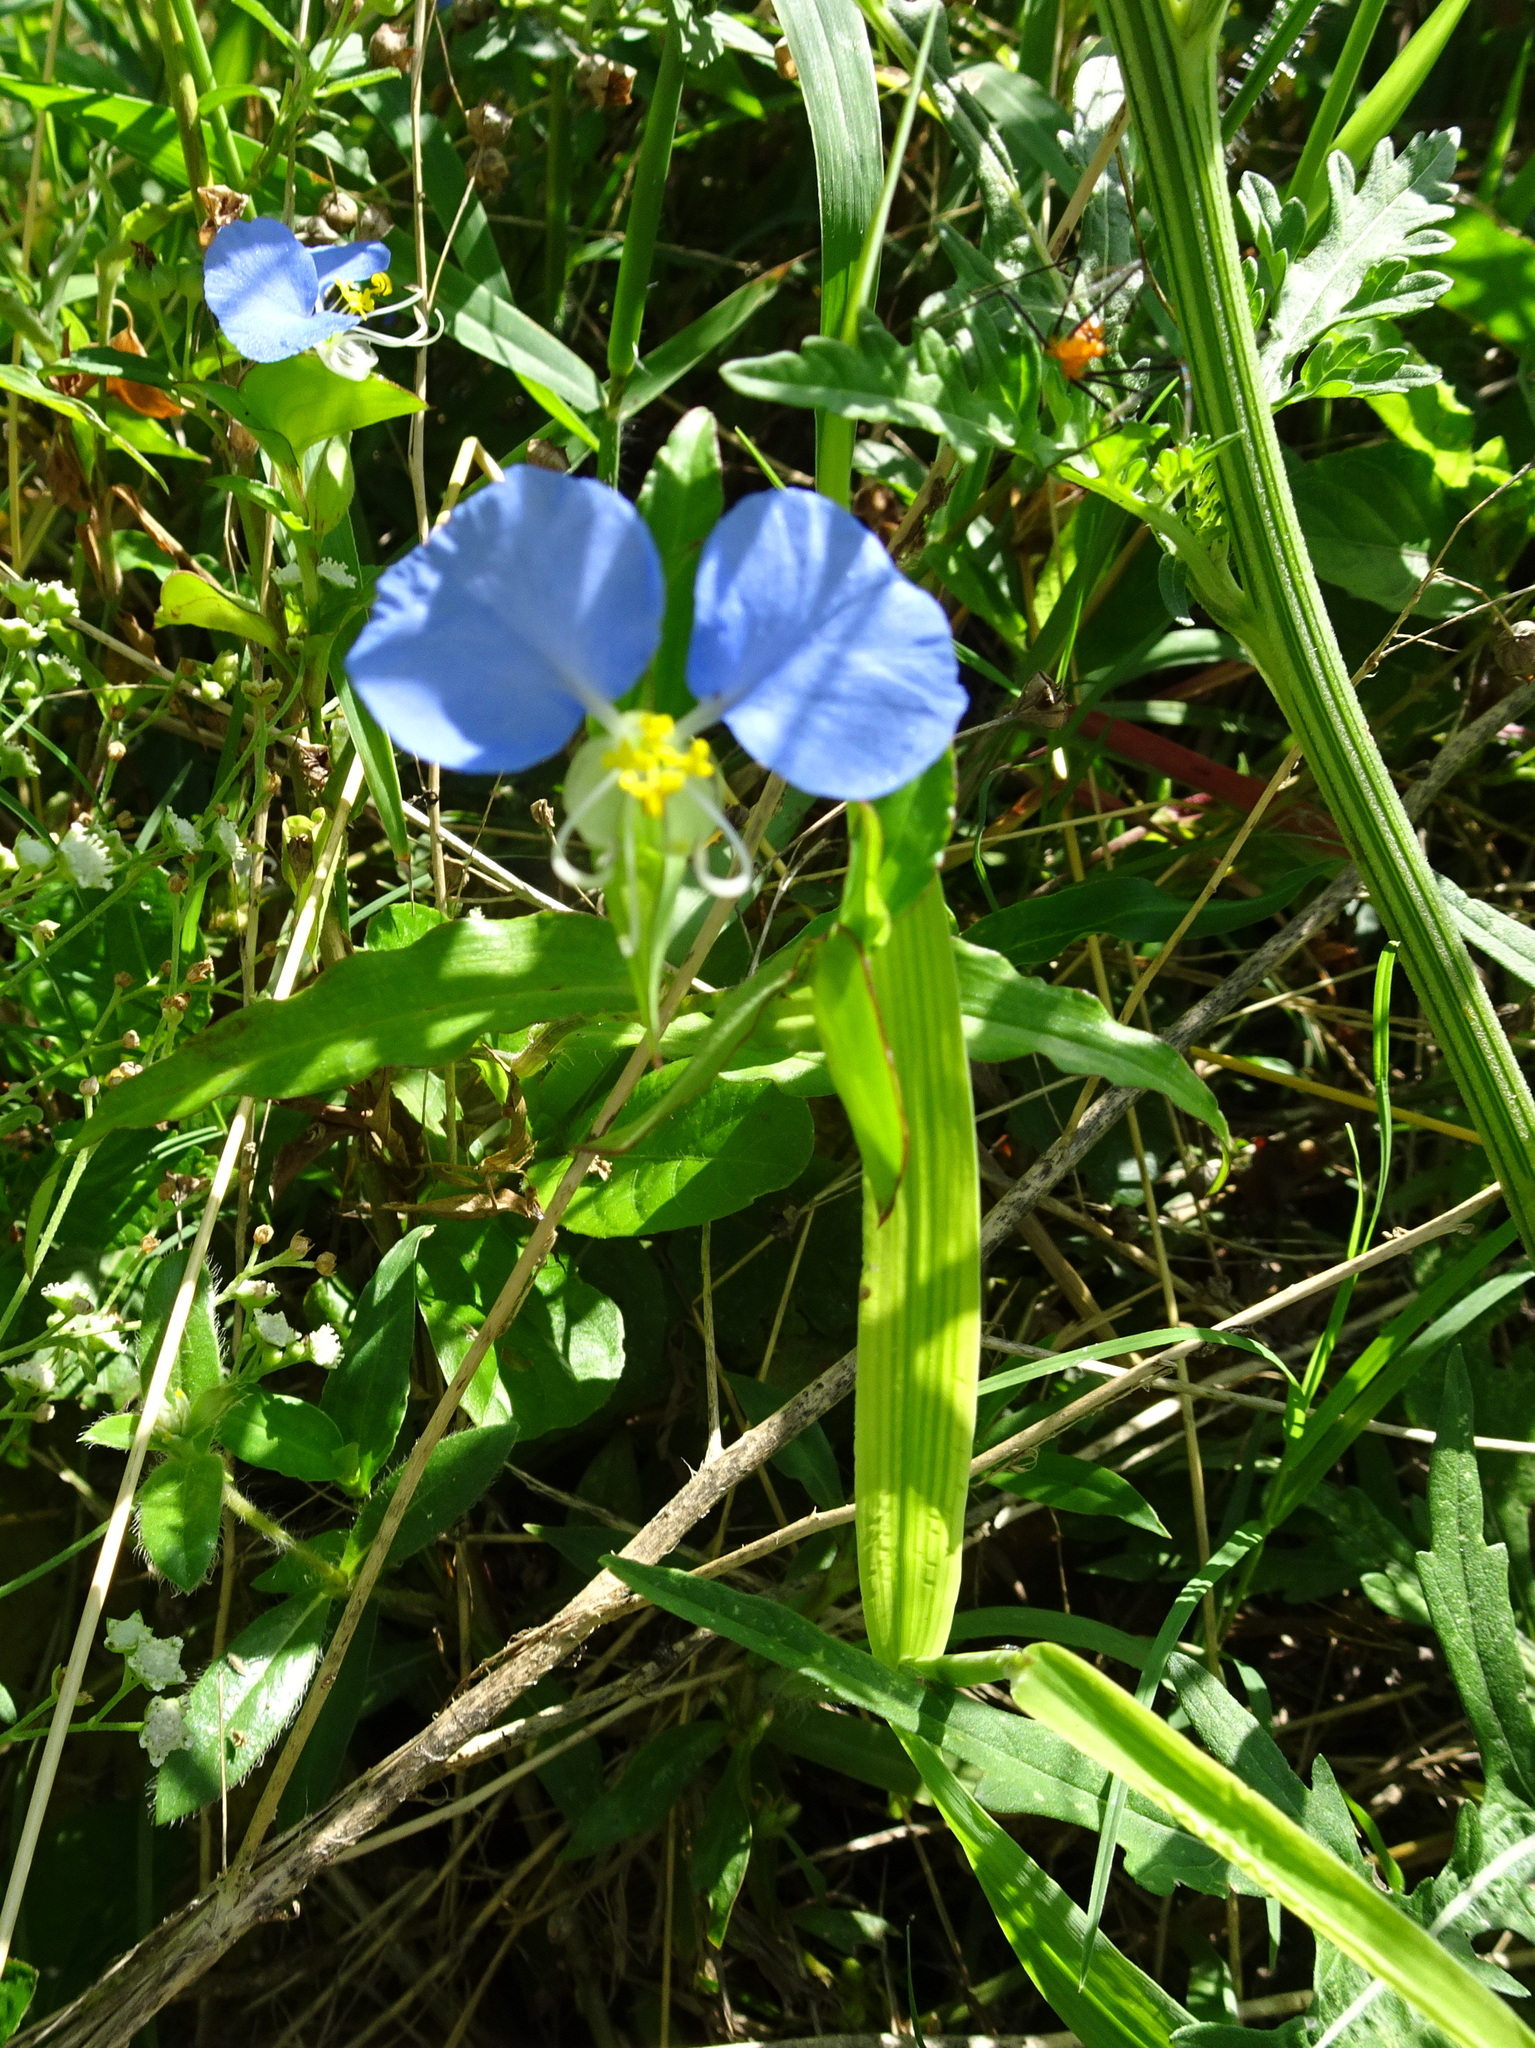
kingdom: Plantae
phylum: Tracheophyta
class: Liliopsida
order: Commelinales
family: Commelinaceae
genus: Commelina
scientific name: Commelina erecta
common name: Blousel blommetjie
